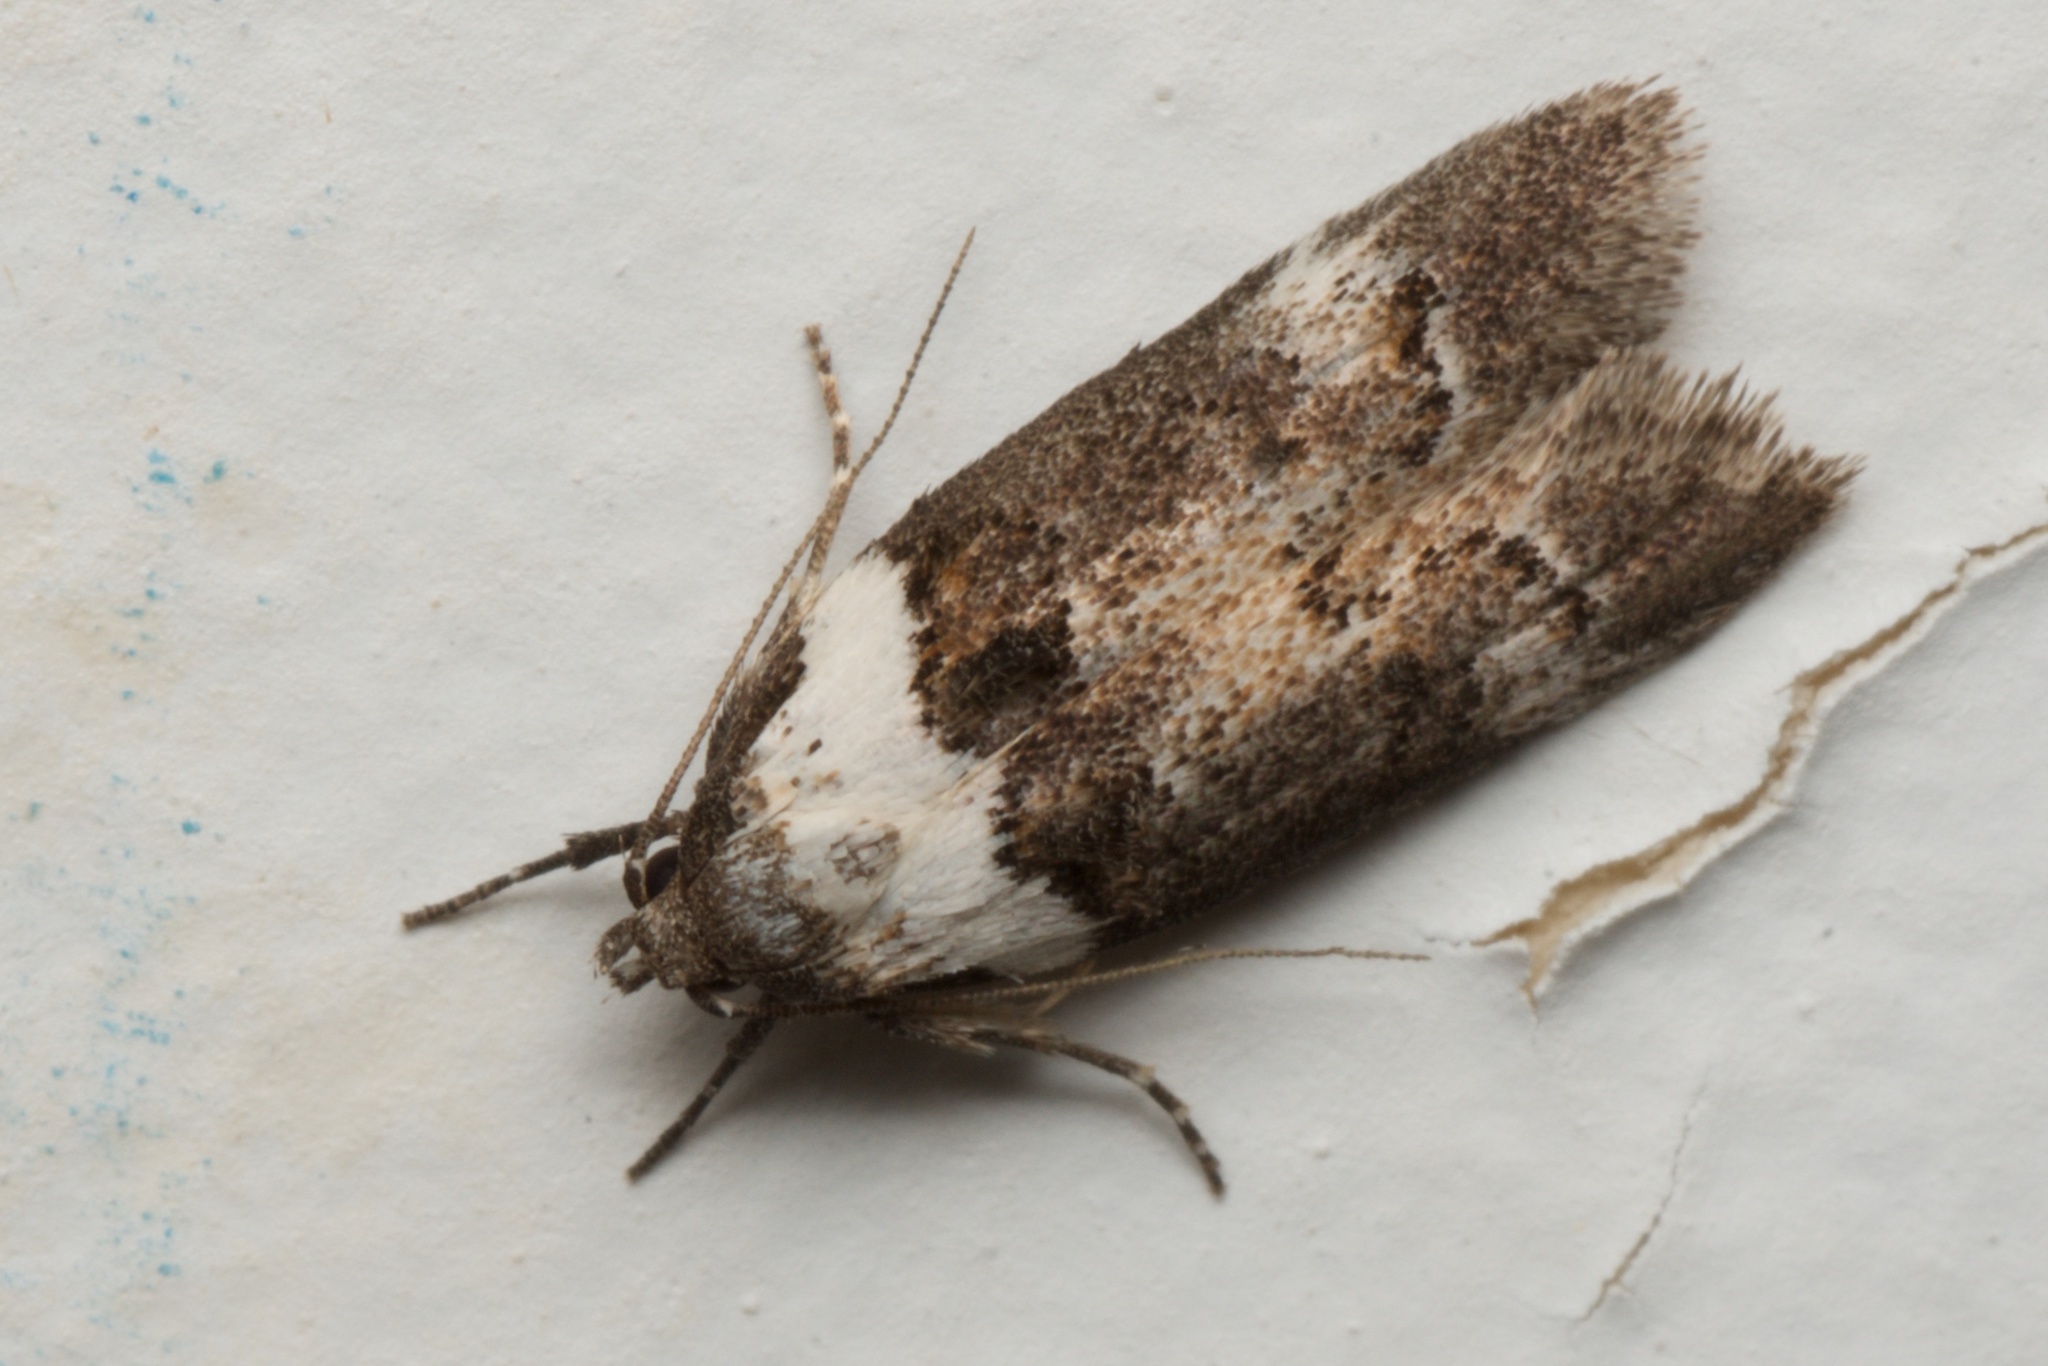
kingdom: Animalia
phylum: Arthropoda
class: Insecta
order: Lepidoptera
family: Oecophoridae
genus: Trachypepla
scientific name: Trachypepla conspicuella
